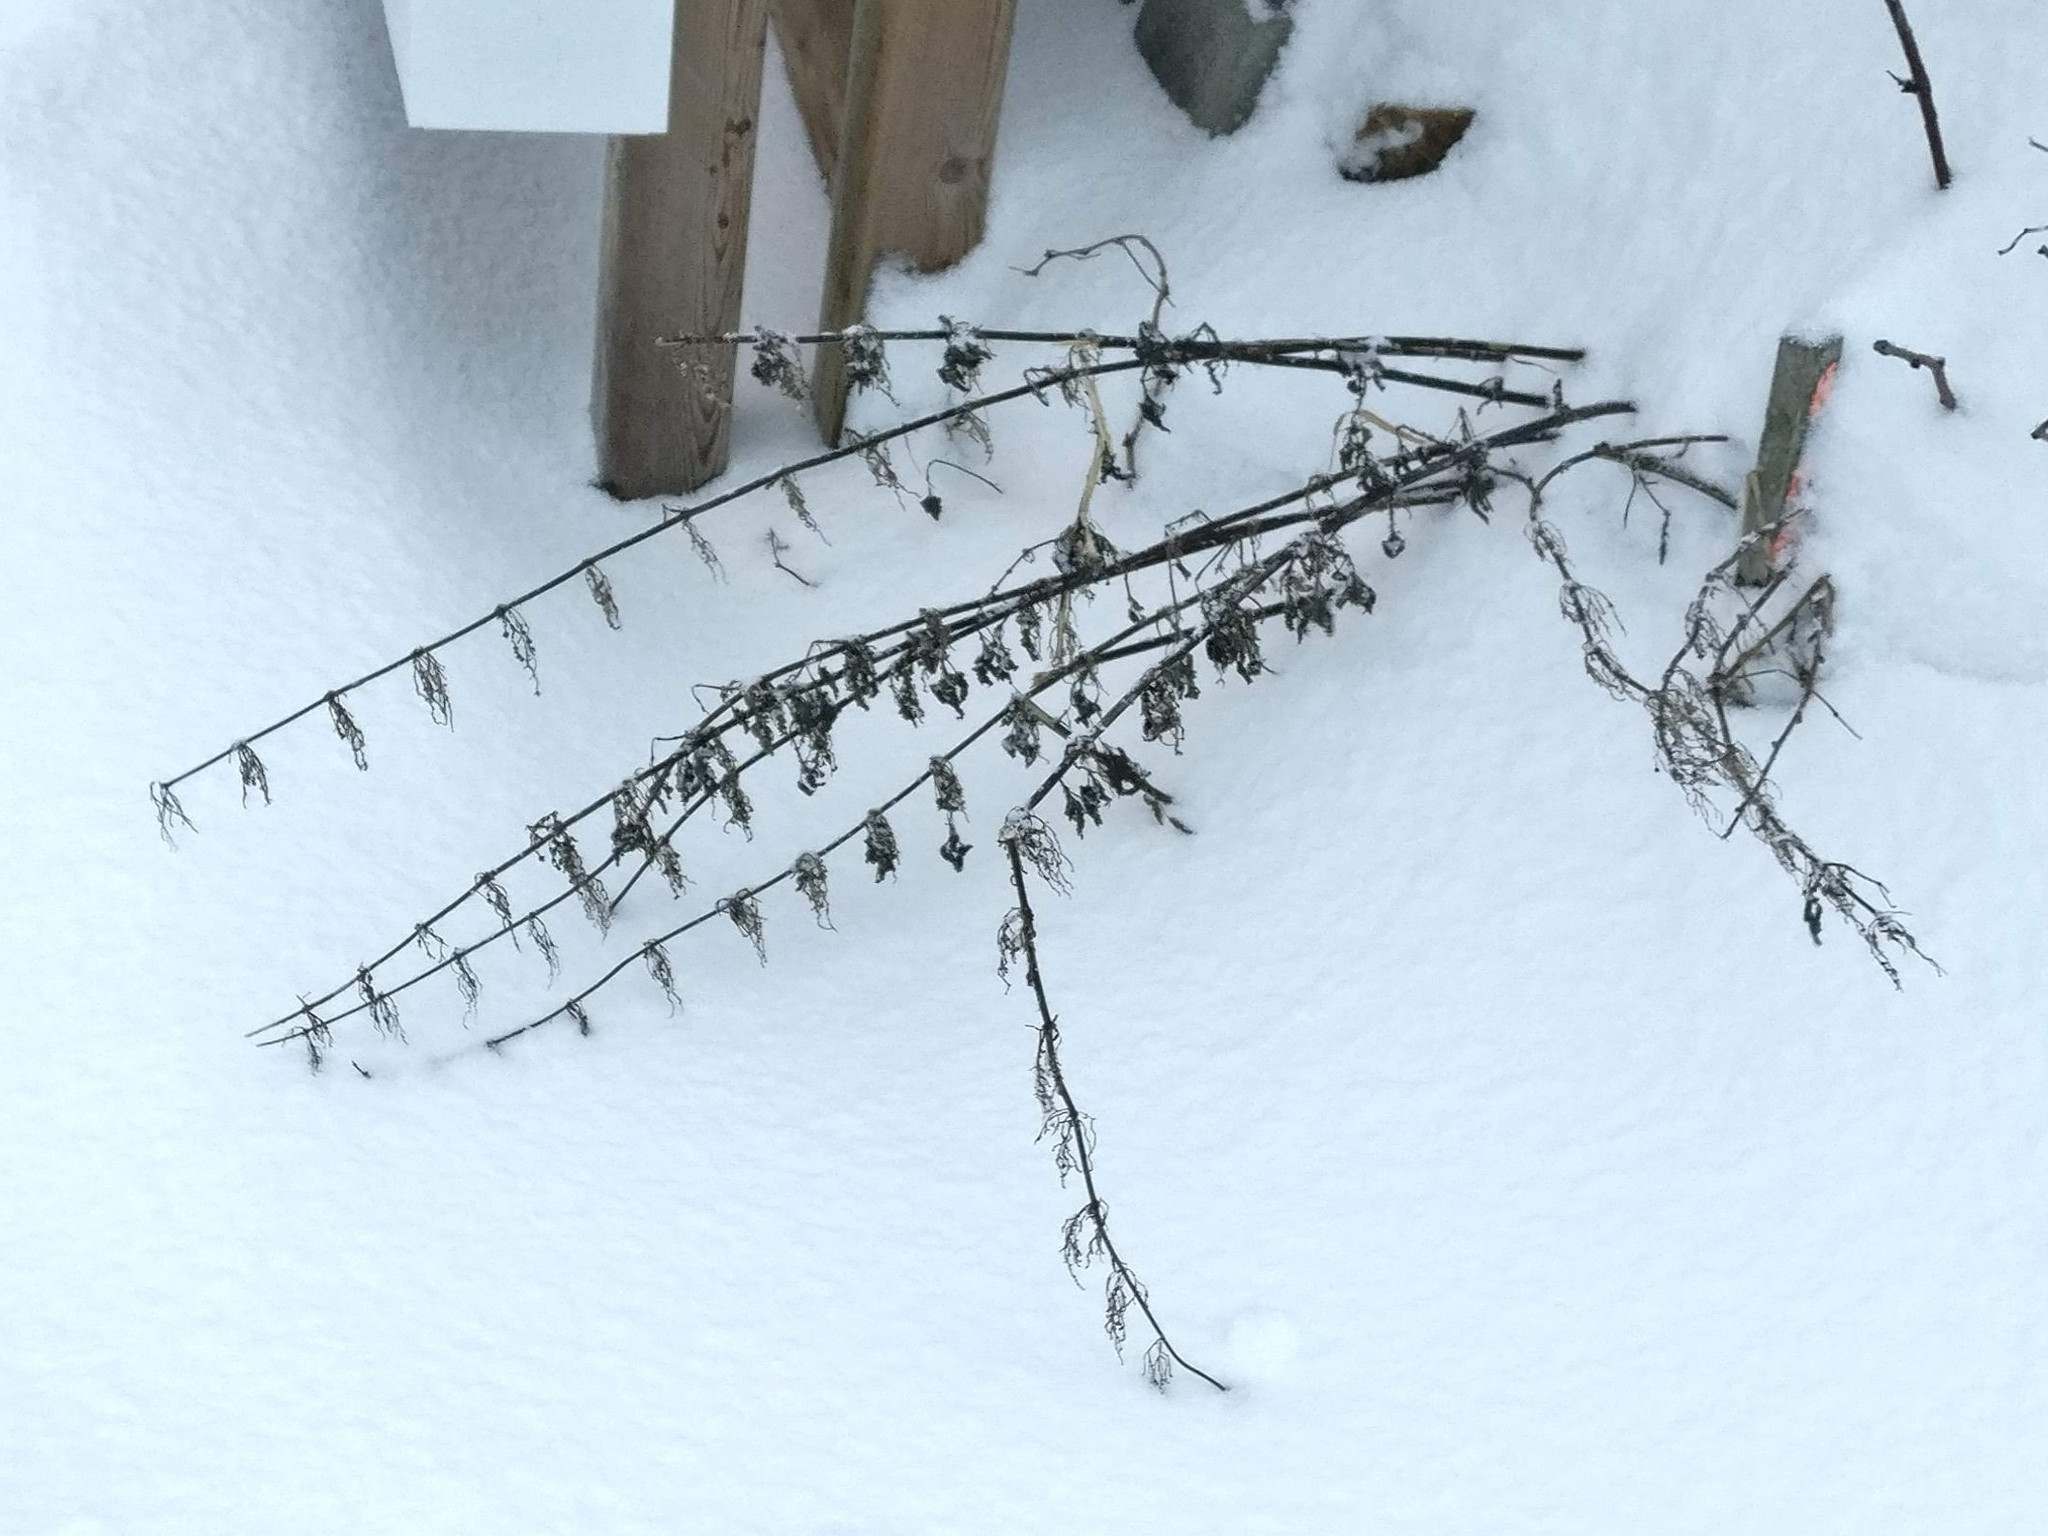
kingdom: Plantae
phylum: Tracheophyta
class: Magnoliopsida
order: Rosales
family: Urticaceae
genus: Urtica
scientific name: Urtica dioica
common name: Common nettle
